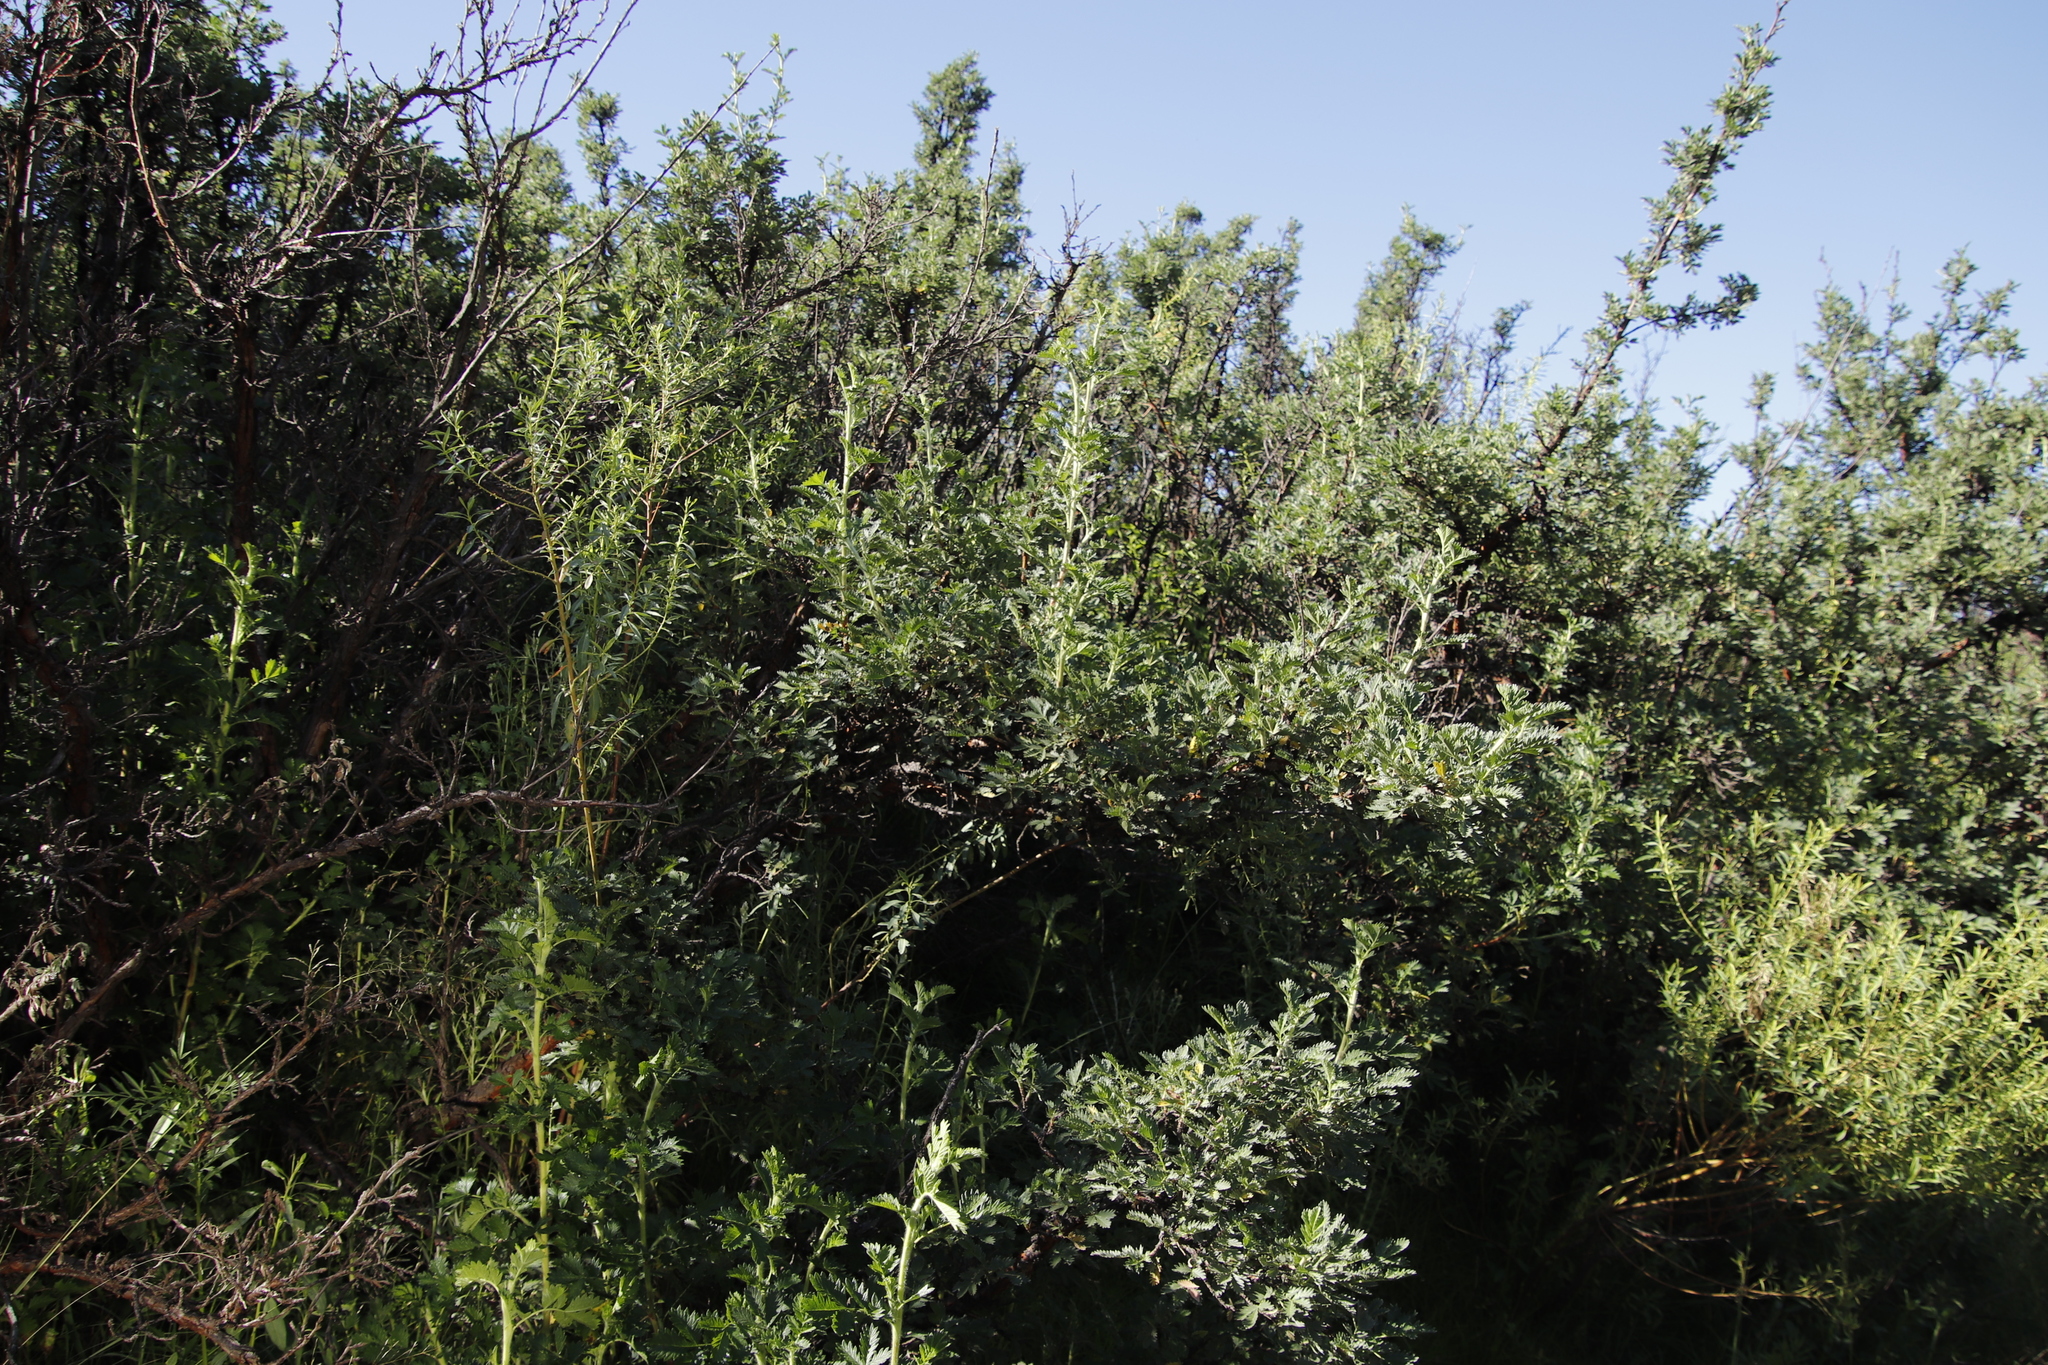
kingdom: Plantae
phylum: Tracheophyta
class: Magnoliopsida
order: Rosales
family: Rosaceae
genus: Leucosidea
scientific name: Leucosidea sericea
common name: Oldwood
